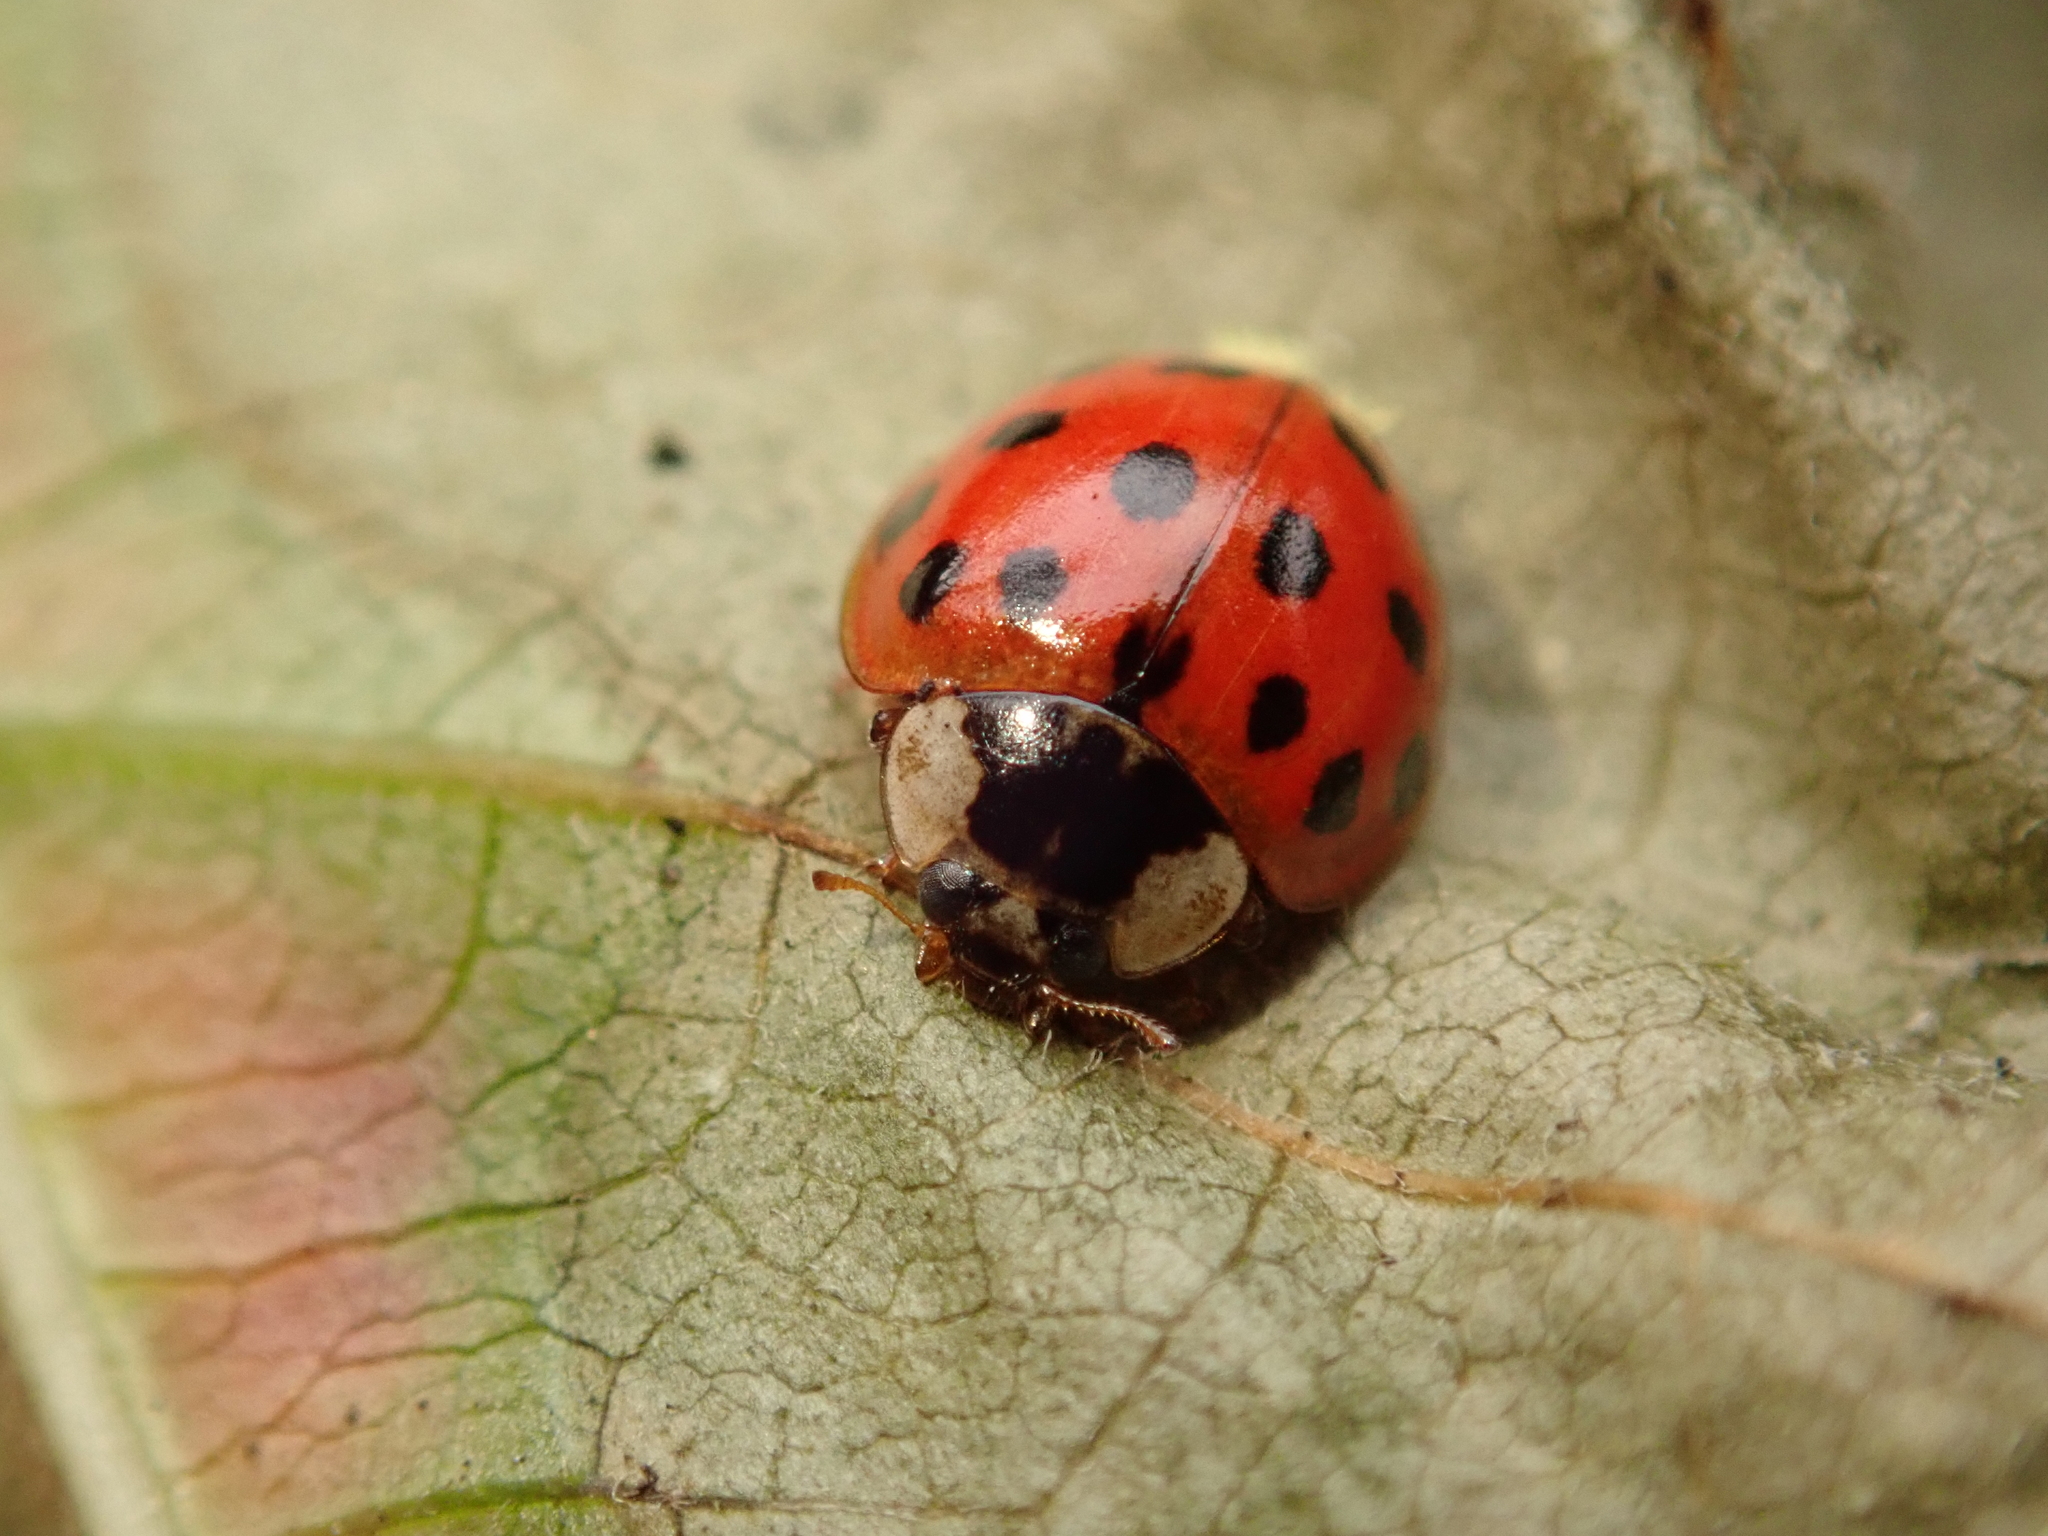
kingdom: Animalia
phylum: Arthropoda
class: Insecta
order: Coleoptera
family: Coccinellidae
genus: Harmonia
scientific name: Harmonia axyridis
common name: Harlequin ladybird
